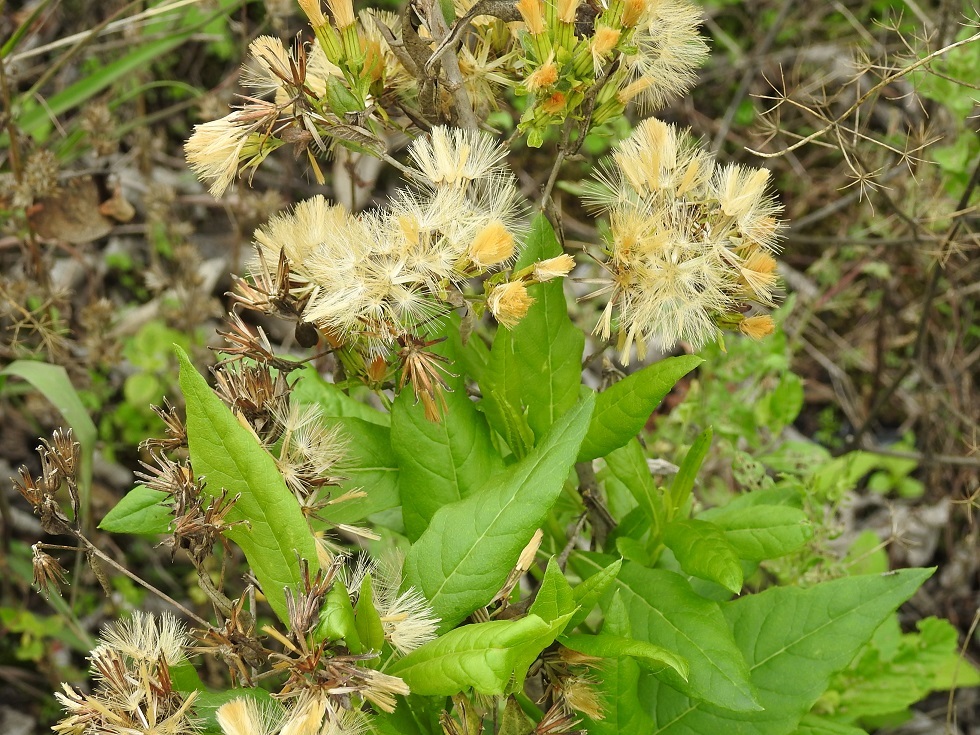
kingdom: Plantae
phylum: Tracheophyta
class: Magnoliopsida
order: Asterales
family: Asteraceae
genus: Trixis
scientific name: Trixis chiapensis
